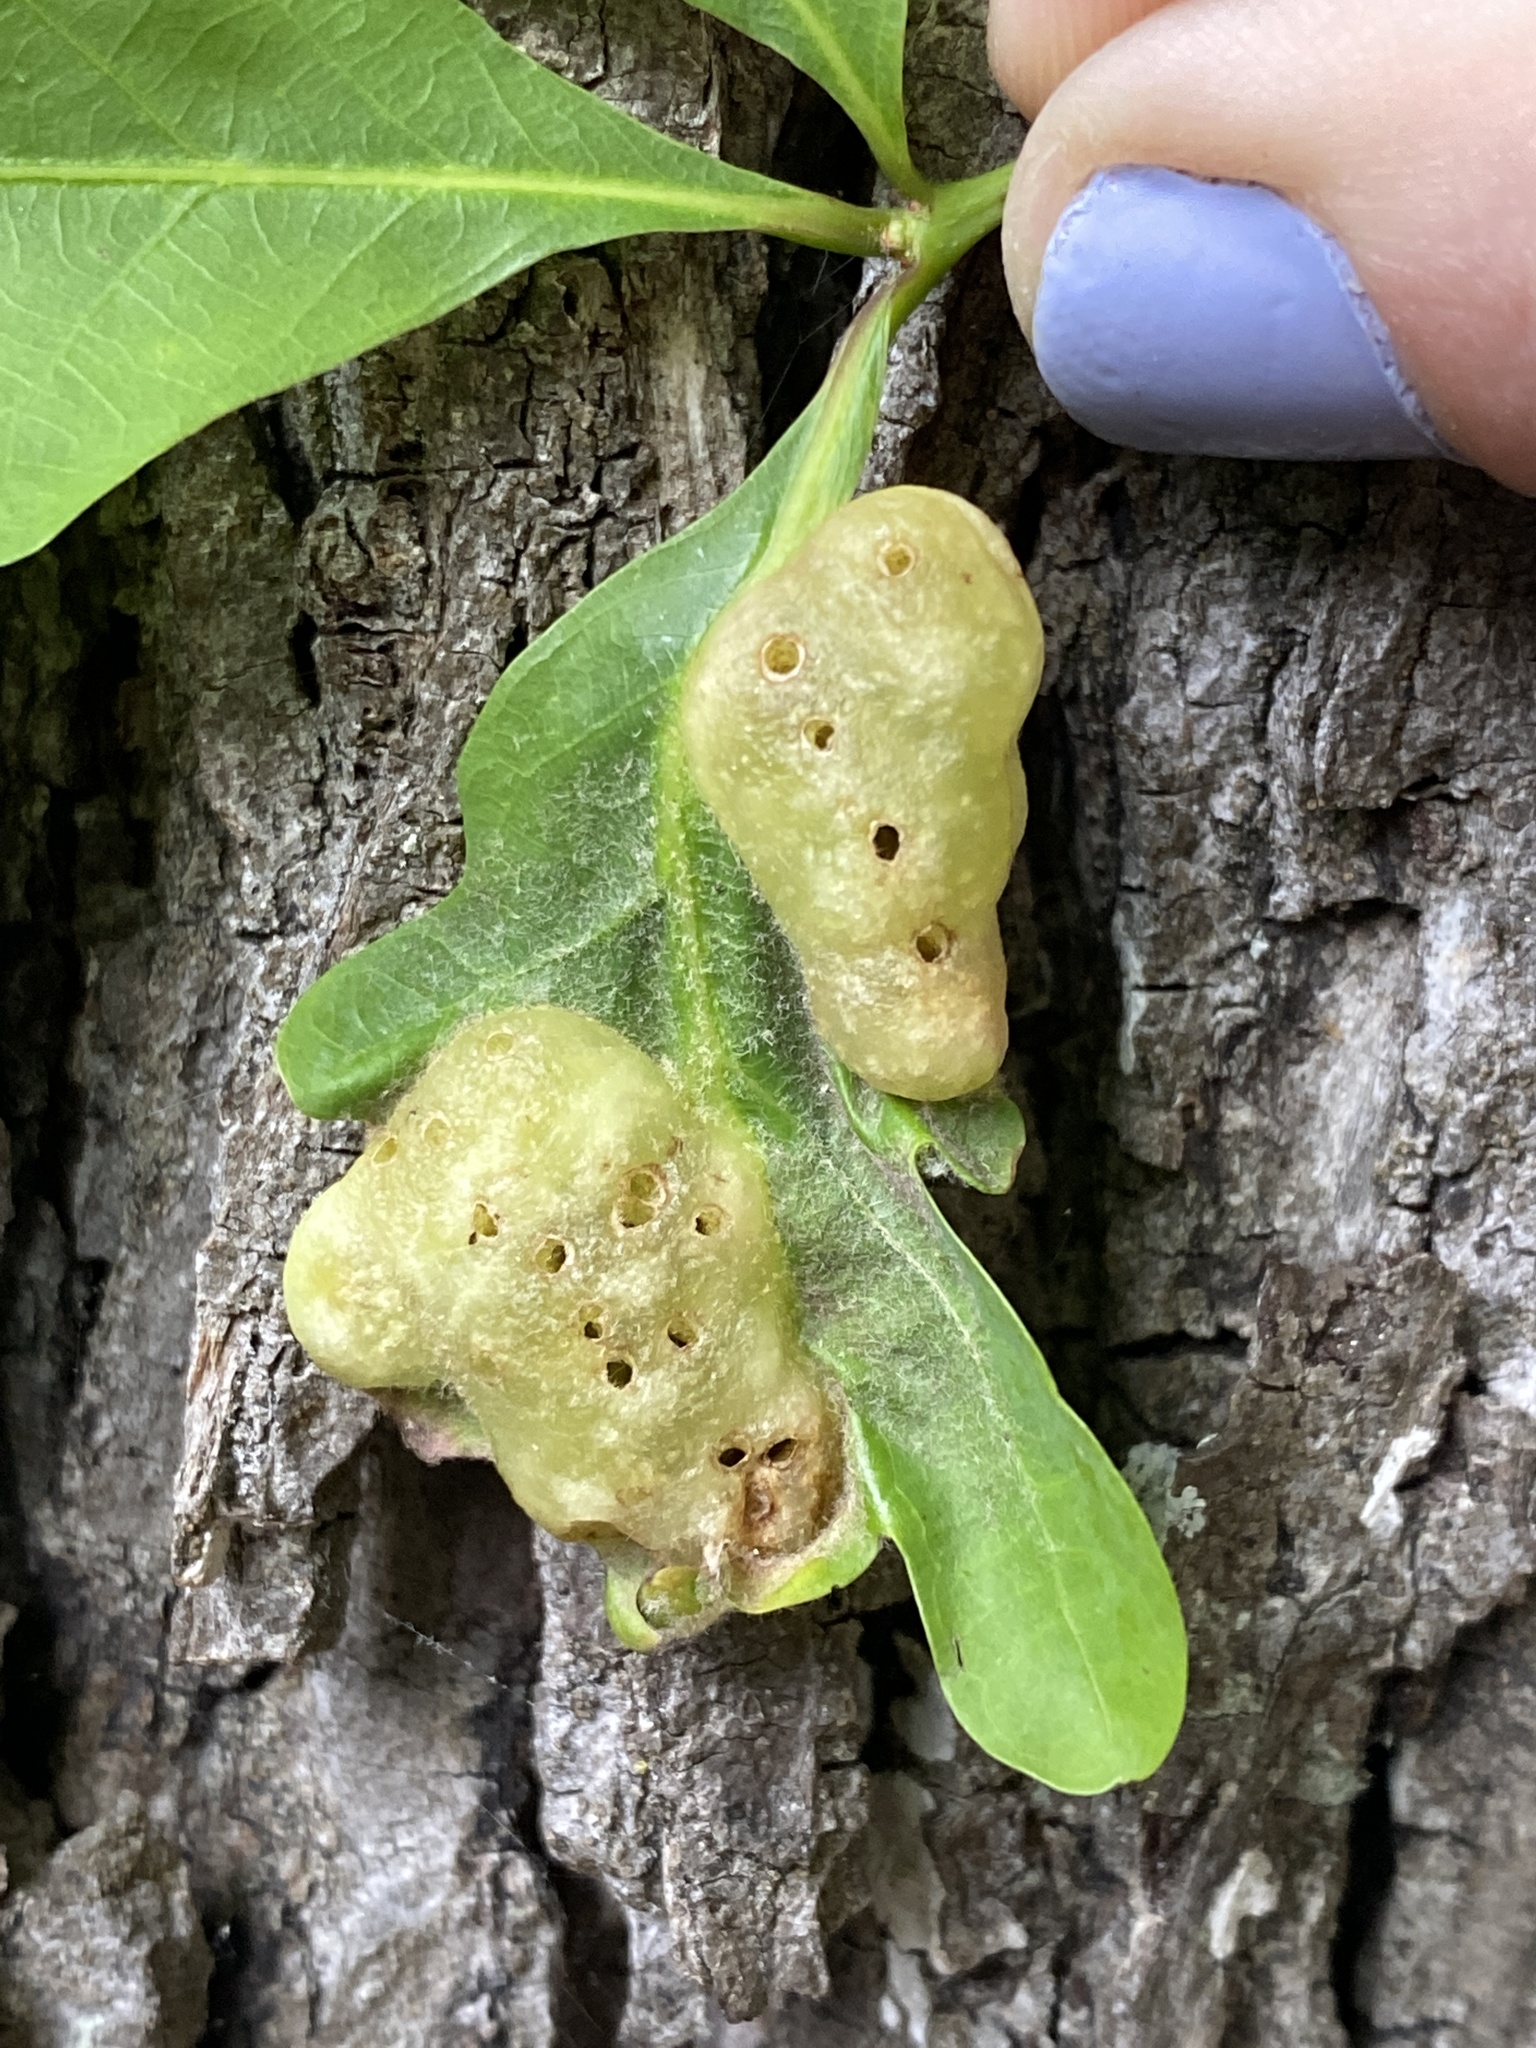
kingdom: Animalia
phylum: Arthropoda
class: Insecta
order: Hymenoptera
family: Cynipidae
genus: Neuroterus
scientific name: Neuroterus quercusirregularis
